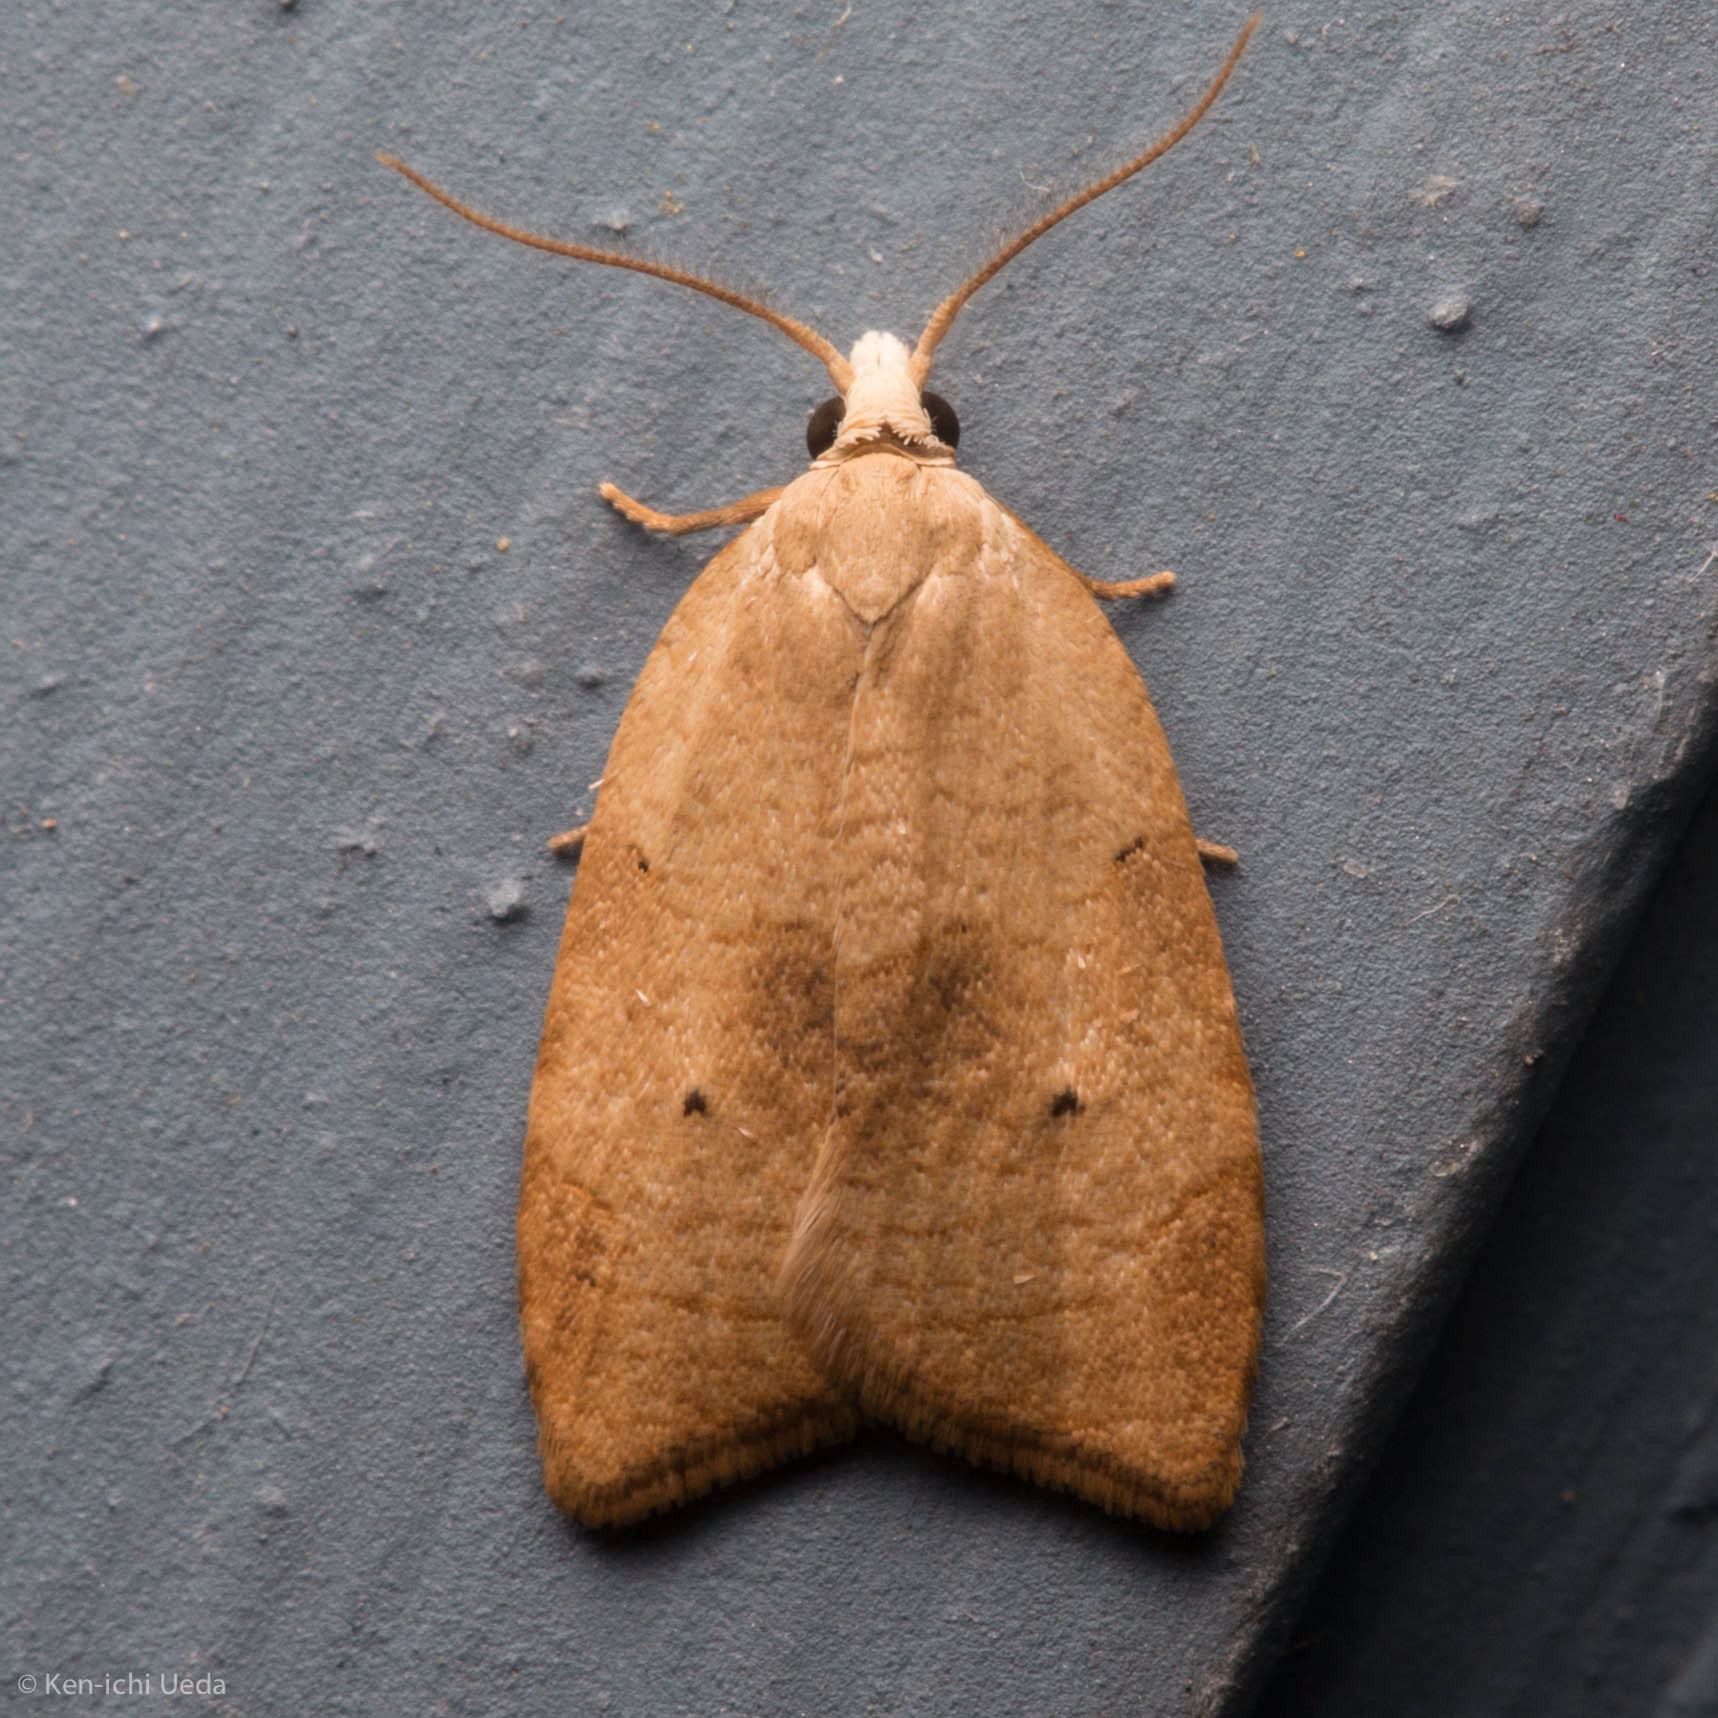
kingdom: Animalia
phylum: Arthropoda
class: Insecta
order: Lepidoptera
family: Tortricidae
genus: Coelostathma
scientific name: Coelostathma discopunctana
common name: Batman moth
